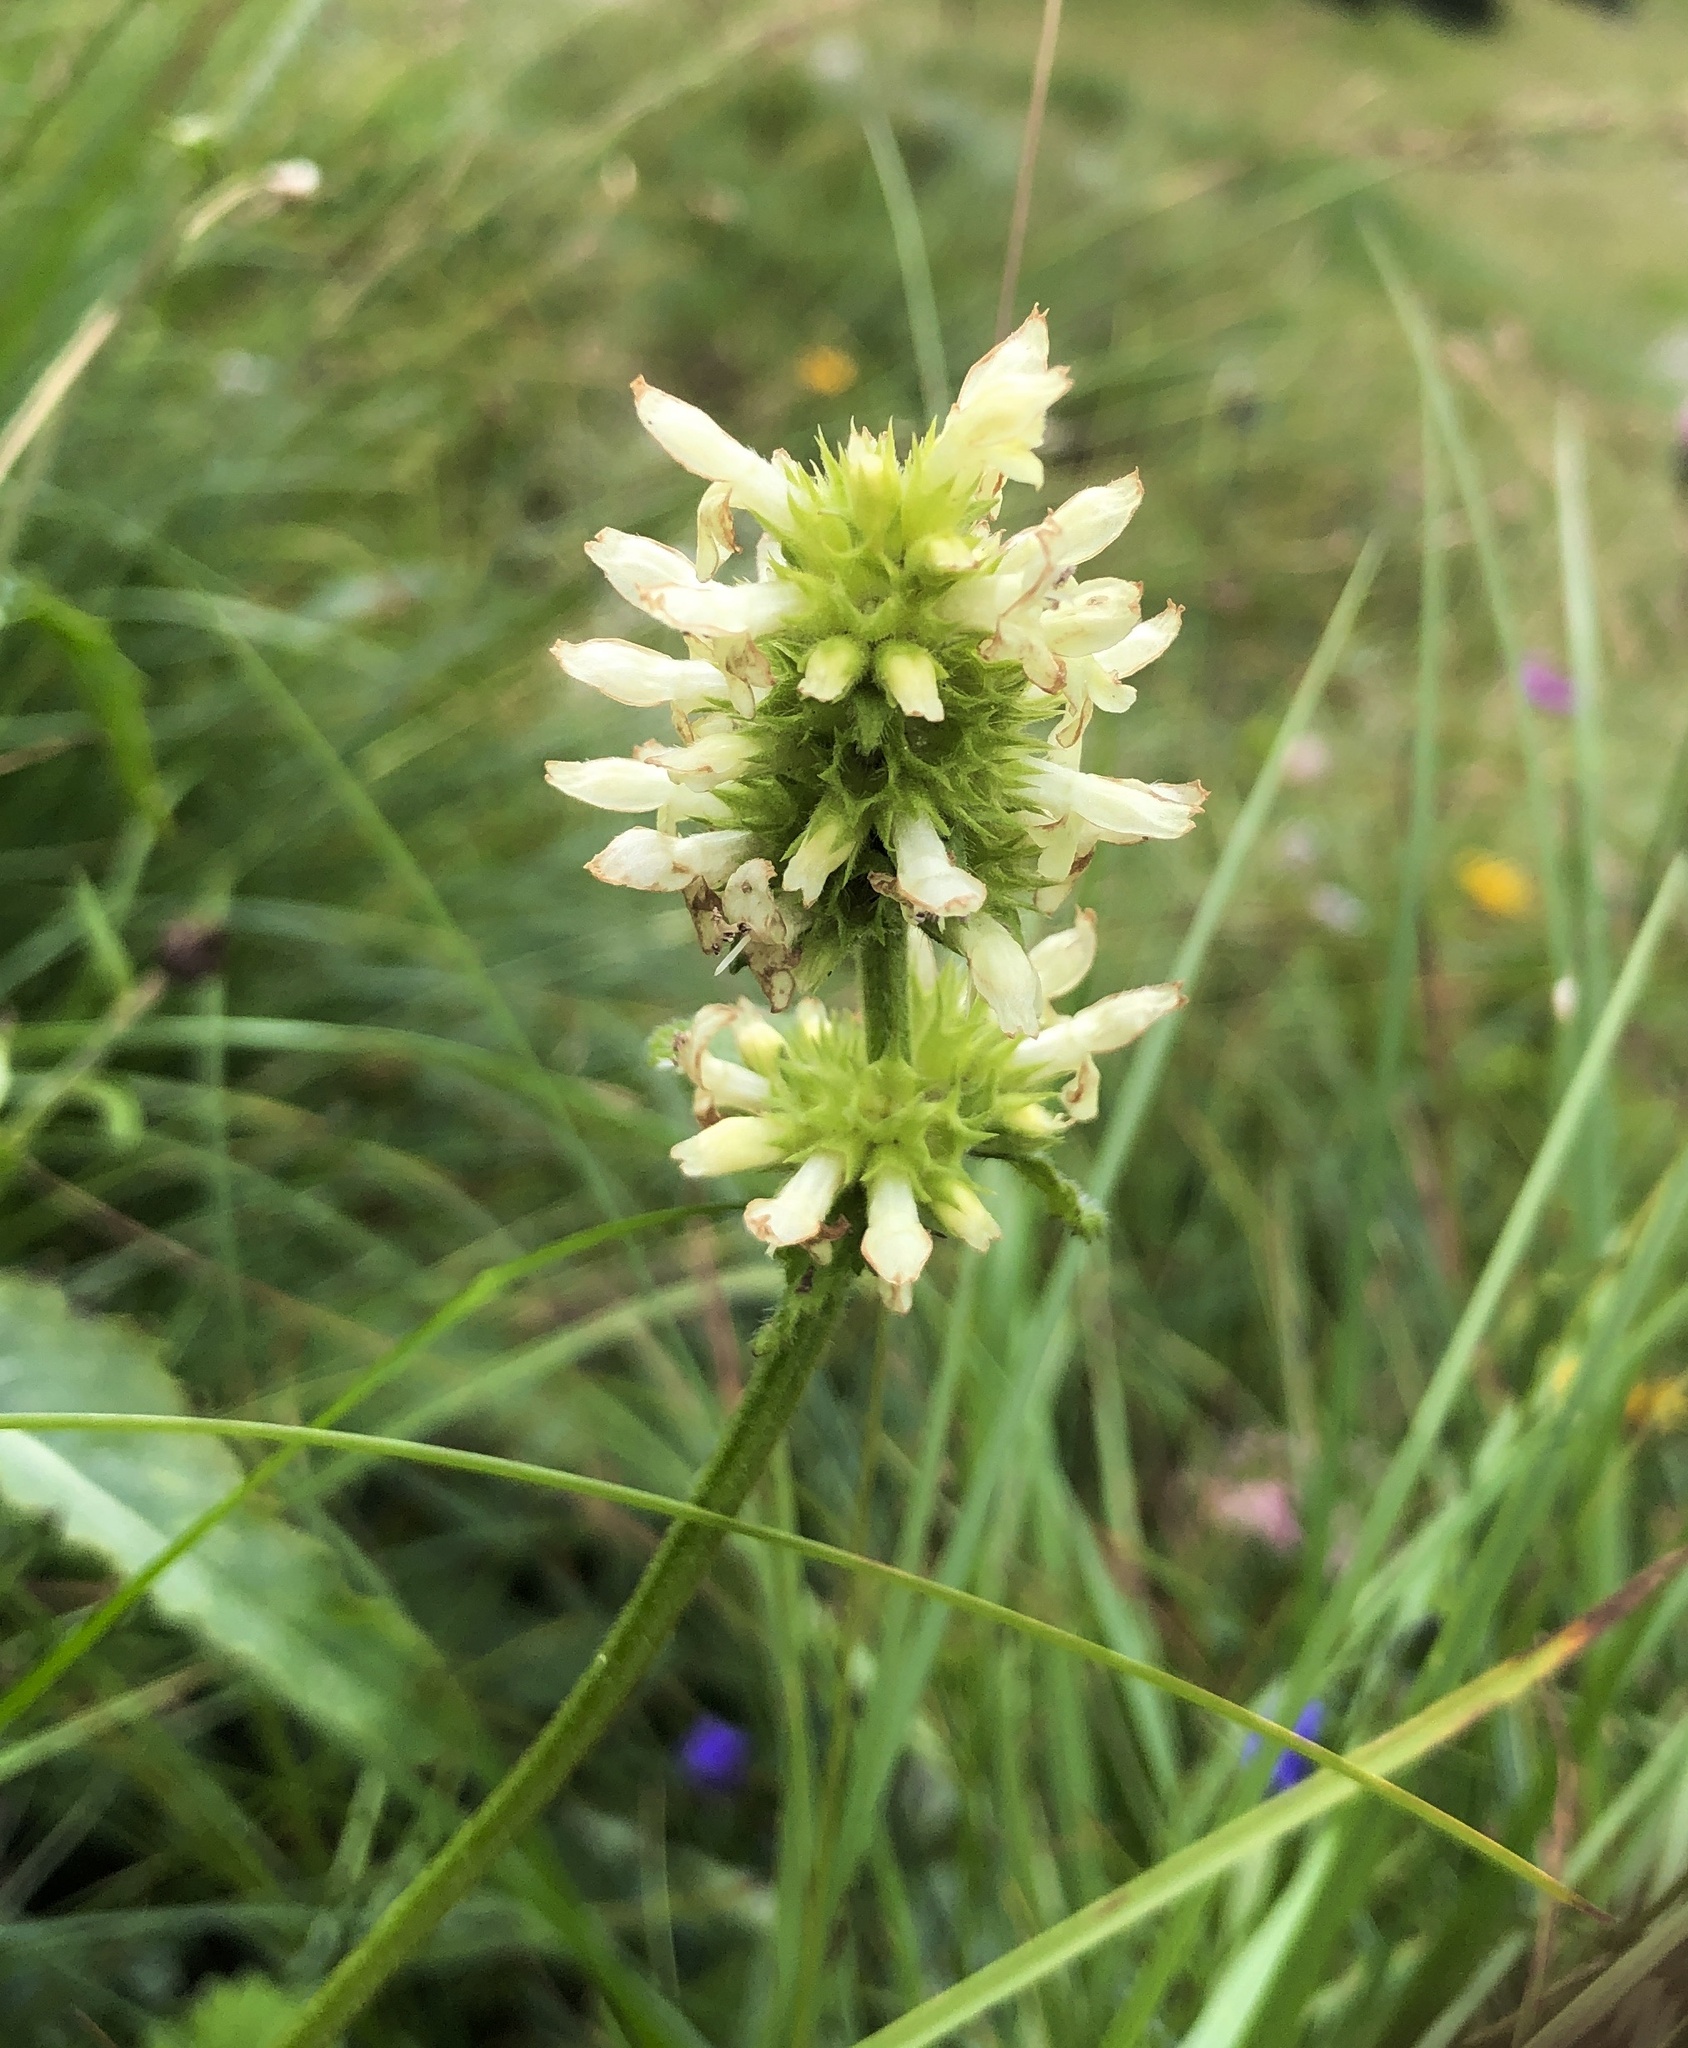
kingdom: Plantae
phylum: Tracheophyta
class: Magnoliopsida
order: Lamiales
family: Lamiaceae
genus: Betonica
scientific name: Betonica alopecuros
